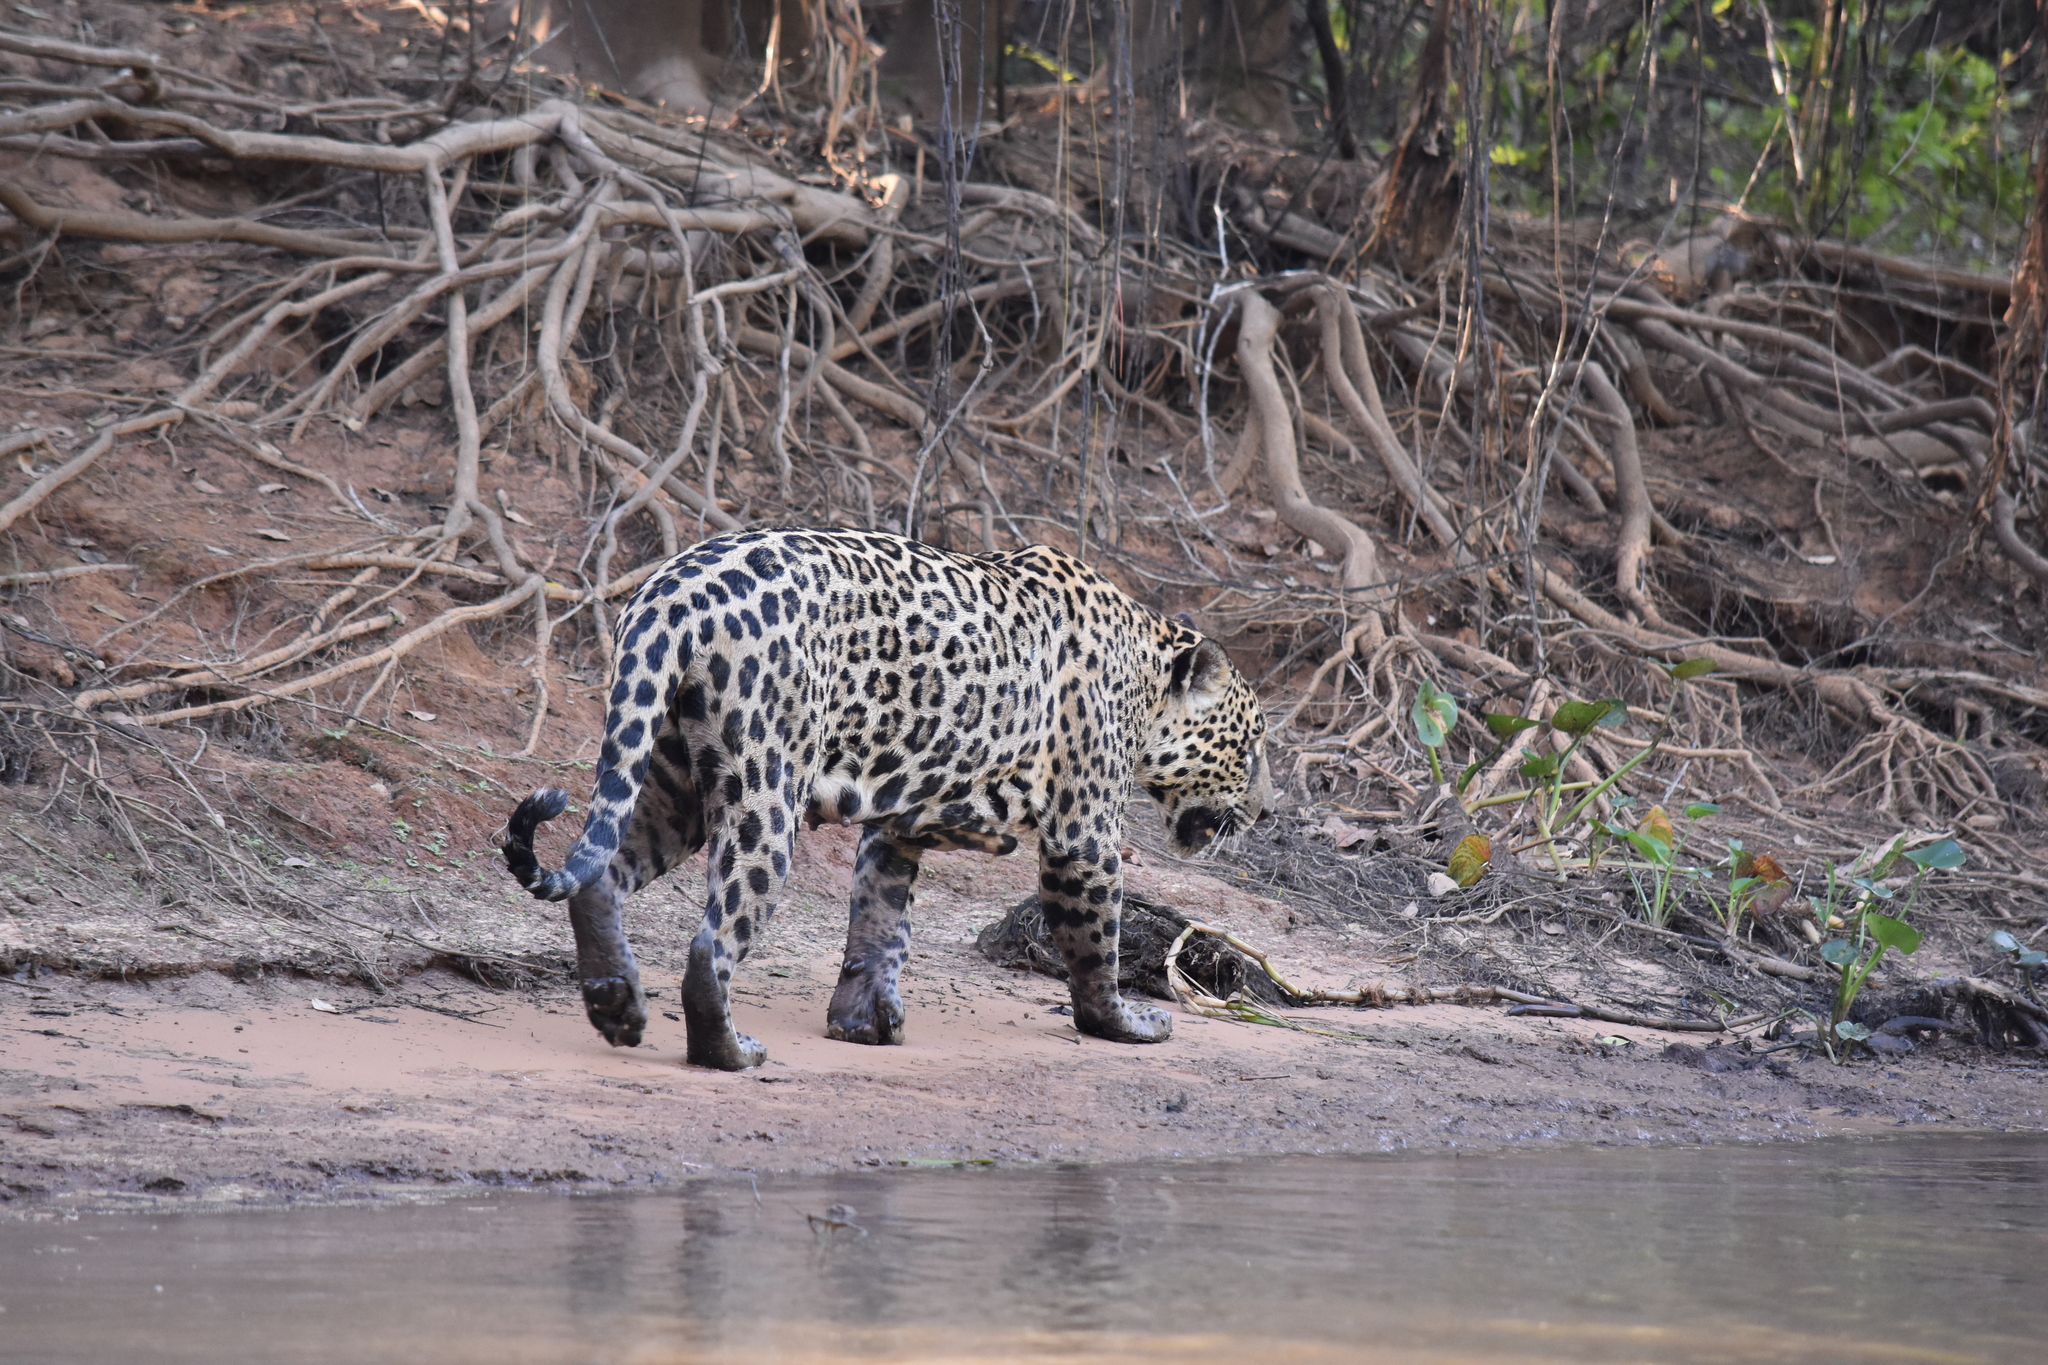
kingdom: Animalia
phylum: Chordata
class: Mammalia
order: Carnivora
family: Felidae
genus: Panthera
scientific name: Panthera onca
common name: Jaguar
